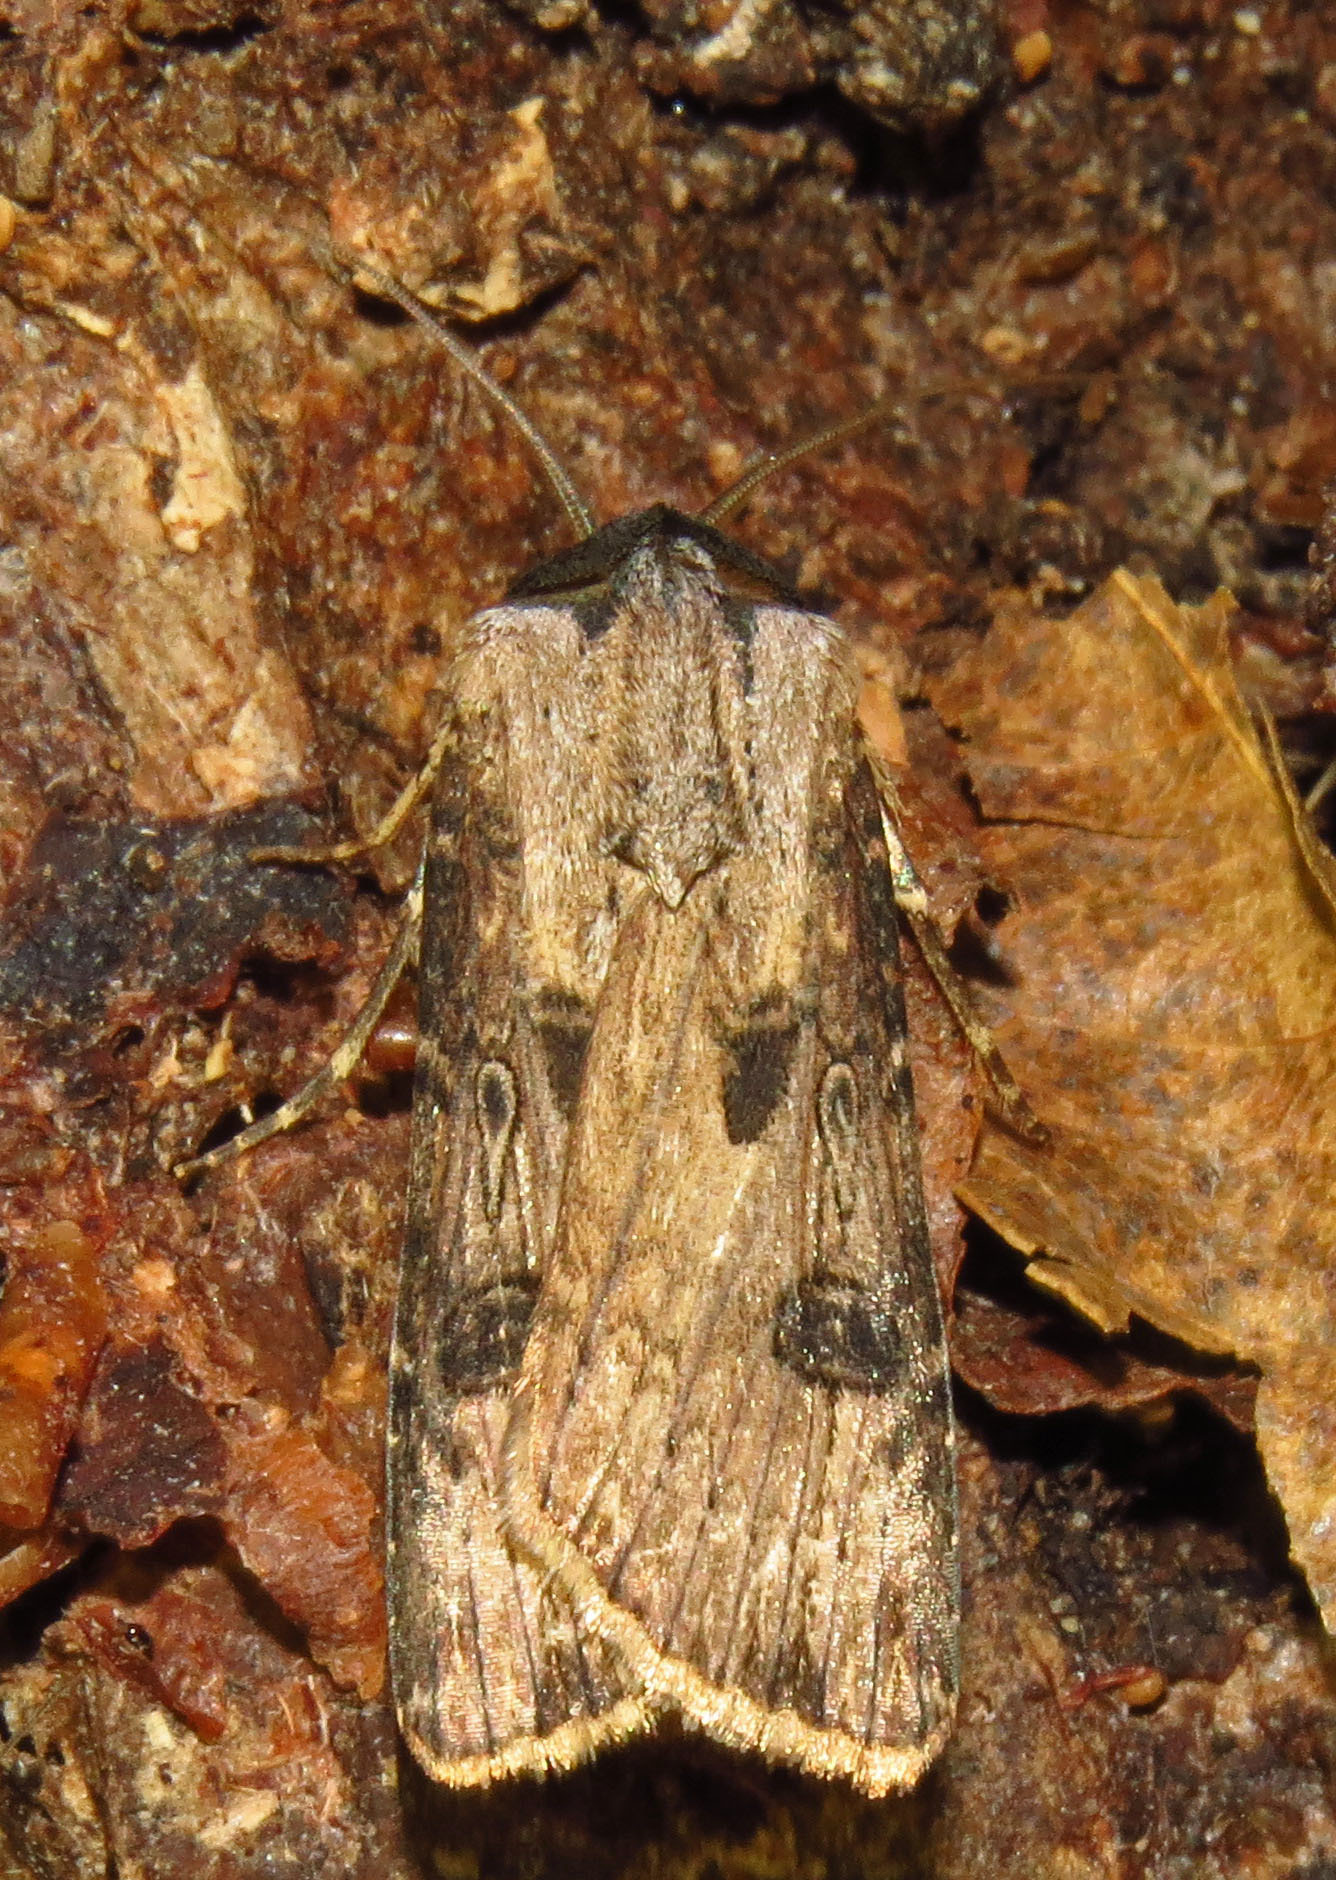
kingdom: Animalia
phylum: Arthropoda
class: Insecta
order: Lepidoptera
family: Noctuidae
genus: Agrotis
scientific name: Agrotis malefida
